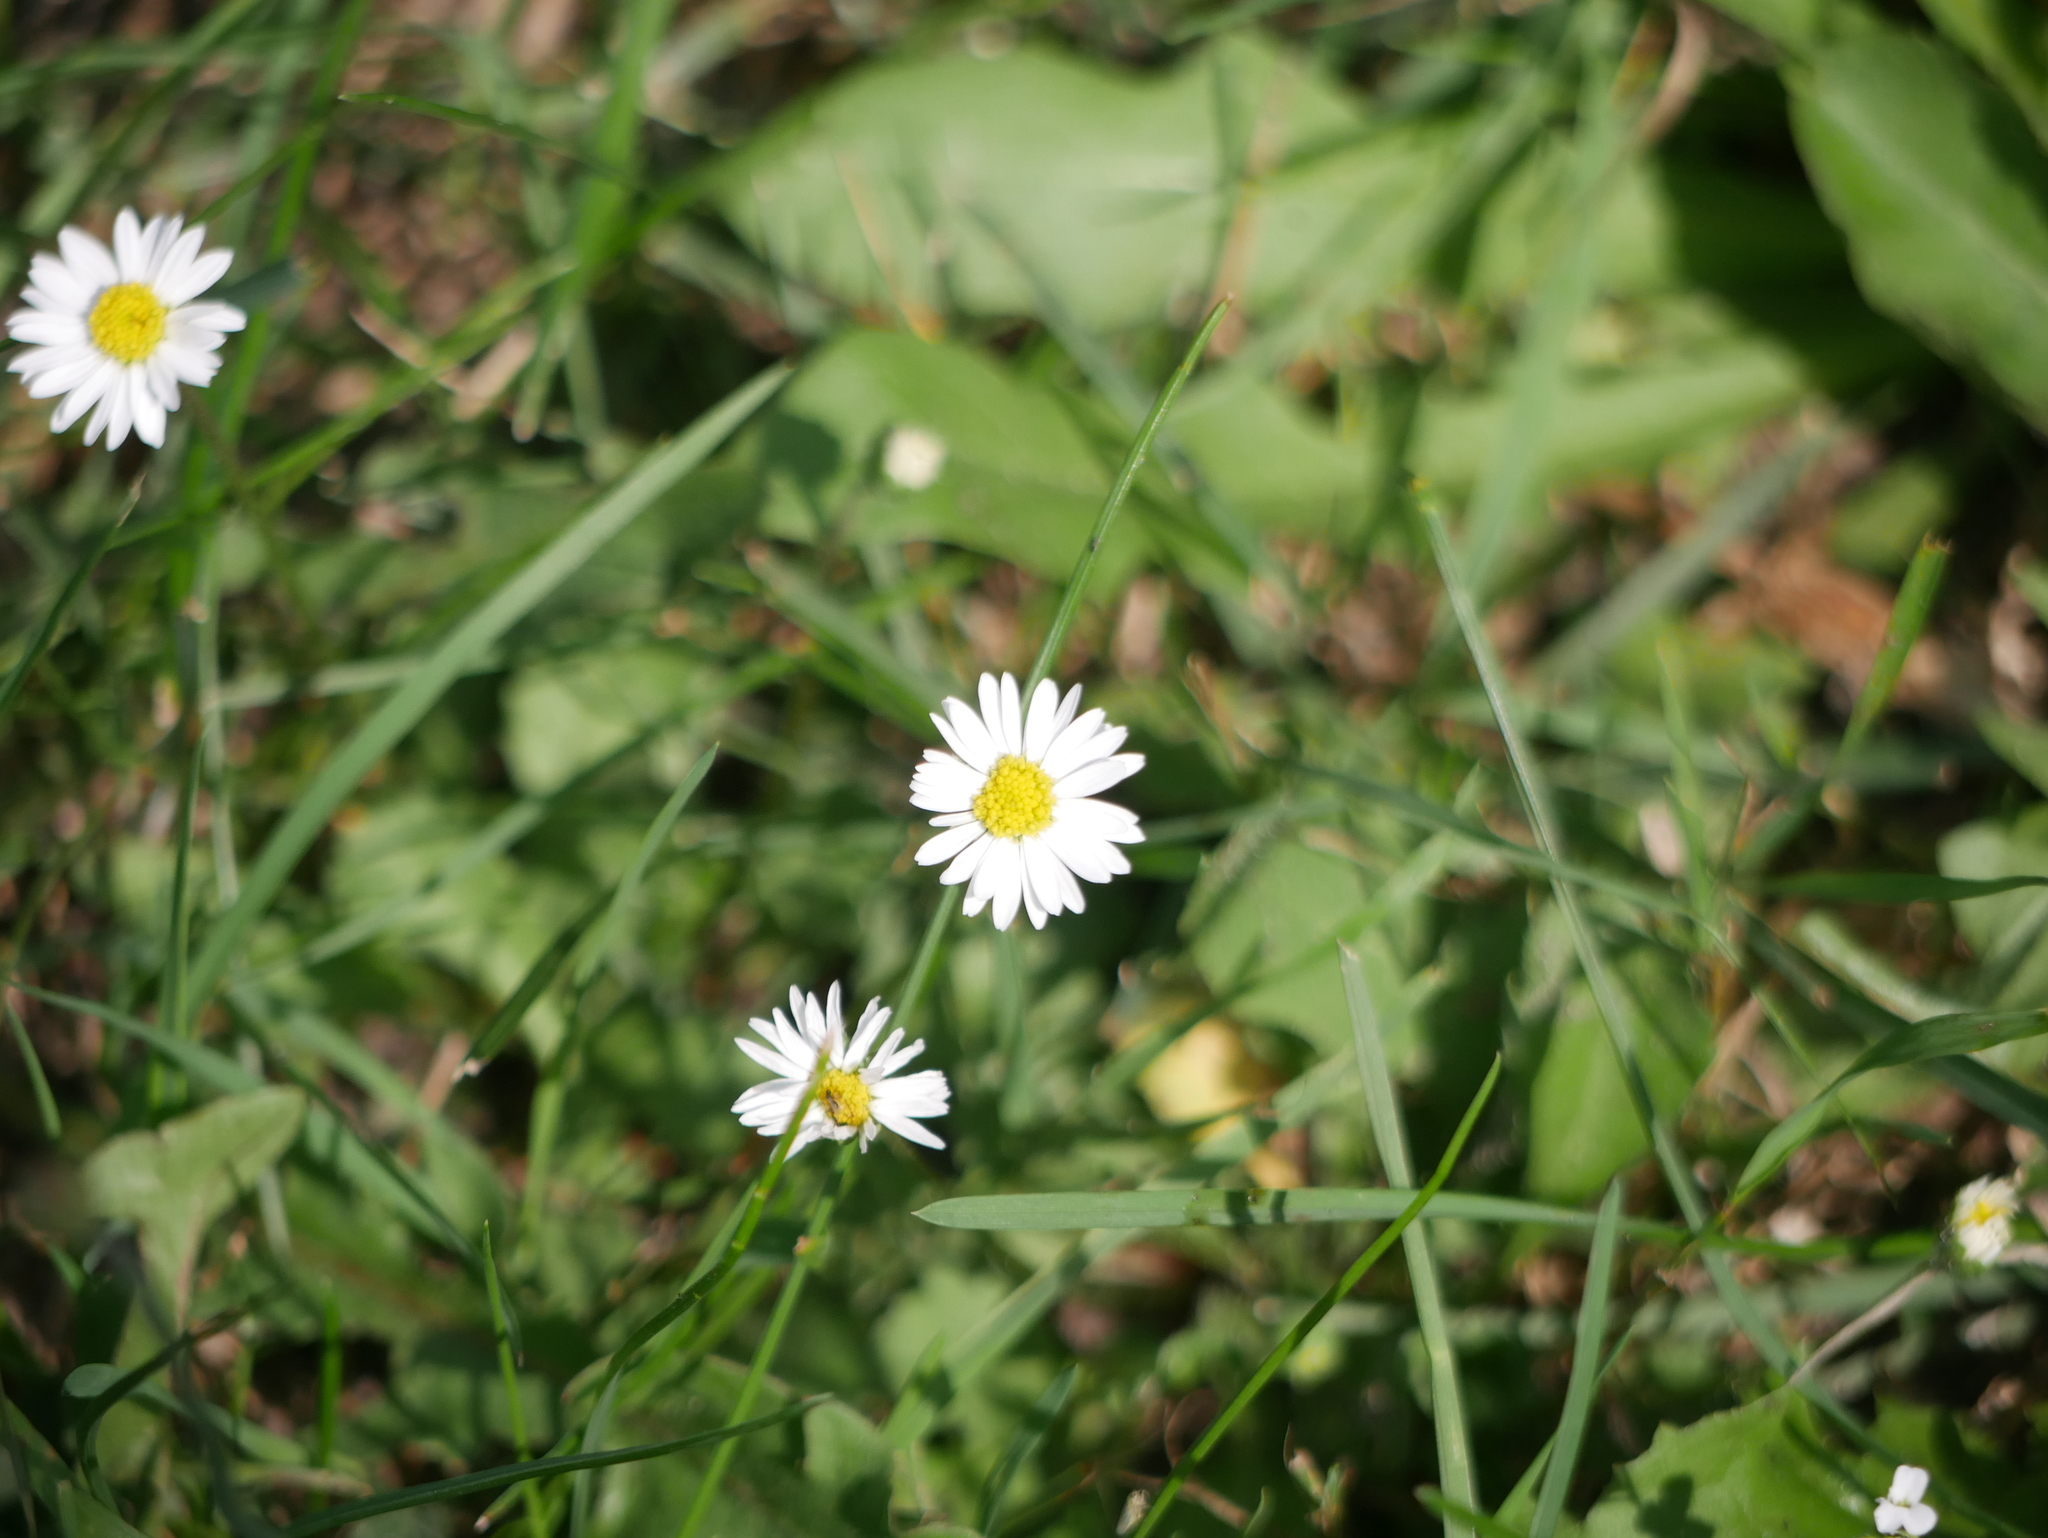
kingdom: Plantae
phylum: Tracheophyta
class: Magnoliopsida
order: Asterales
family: Asteraceae
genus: Bellis
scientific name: Bellis perennis
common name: Lawndaisy
